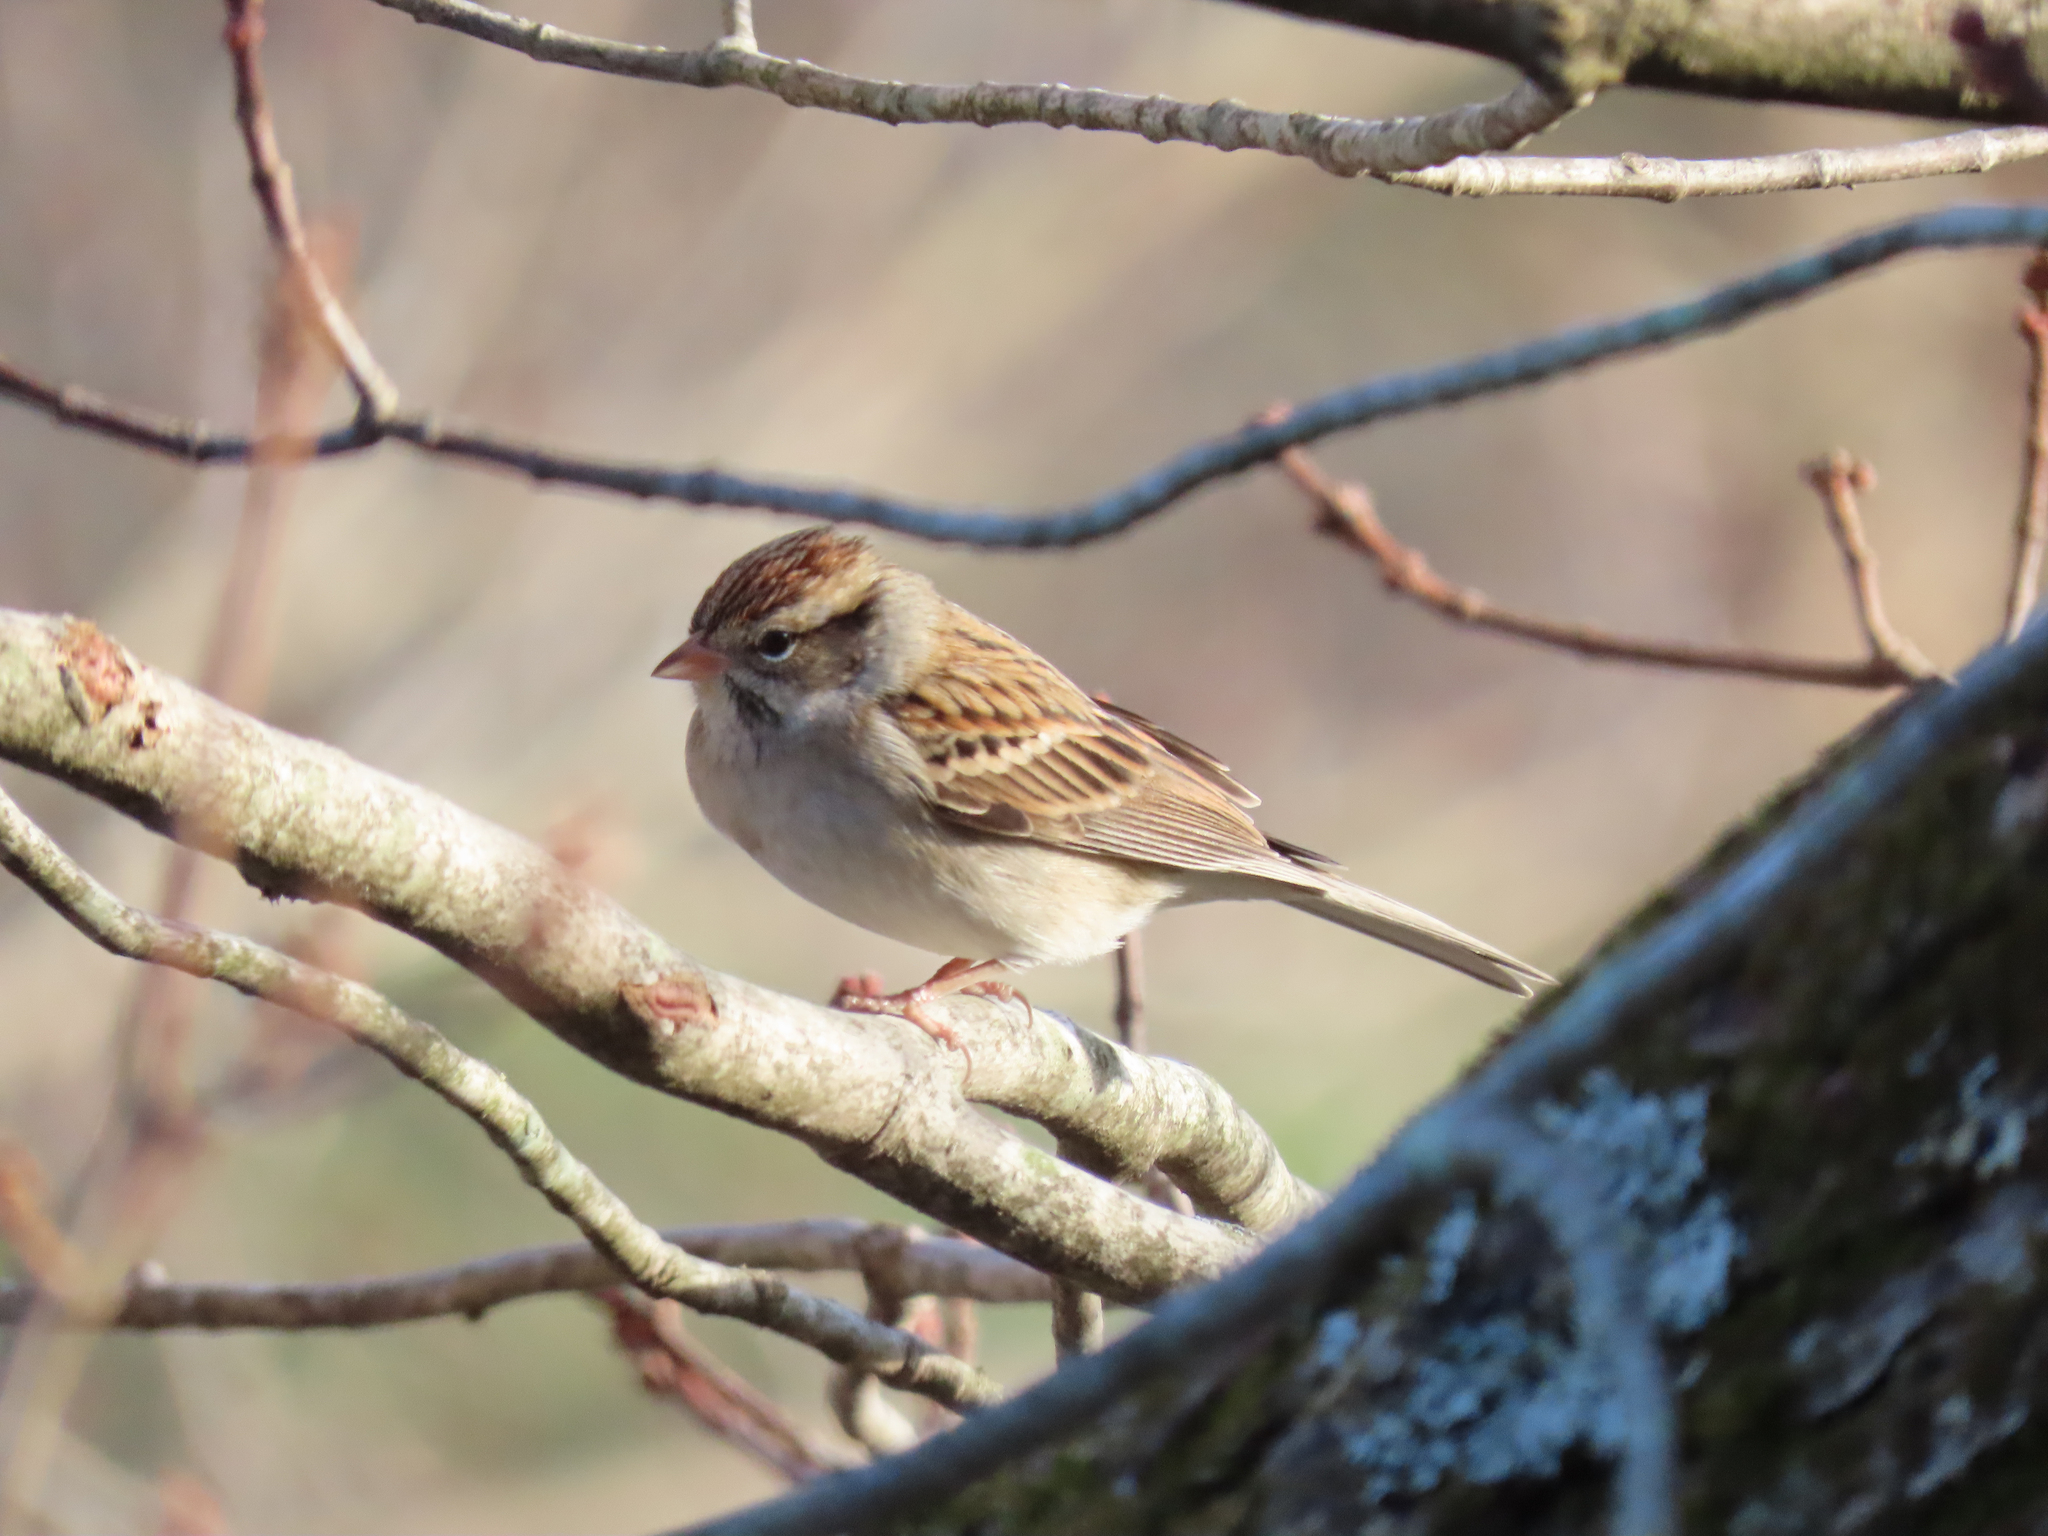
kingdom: Animalia
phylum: Chordata
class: Aves
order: Passeriformes
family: Passerellidae
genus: Spizella
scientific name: Spizella passerina
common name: Chipping sparrow
